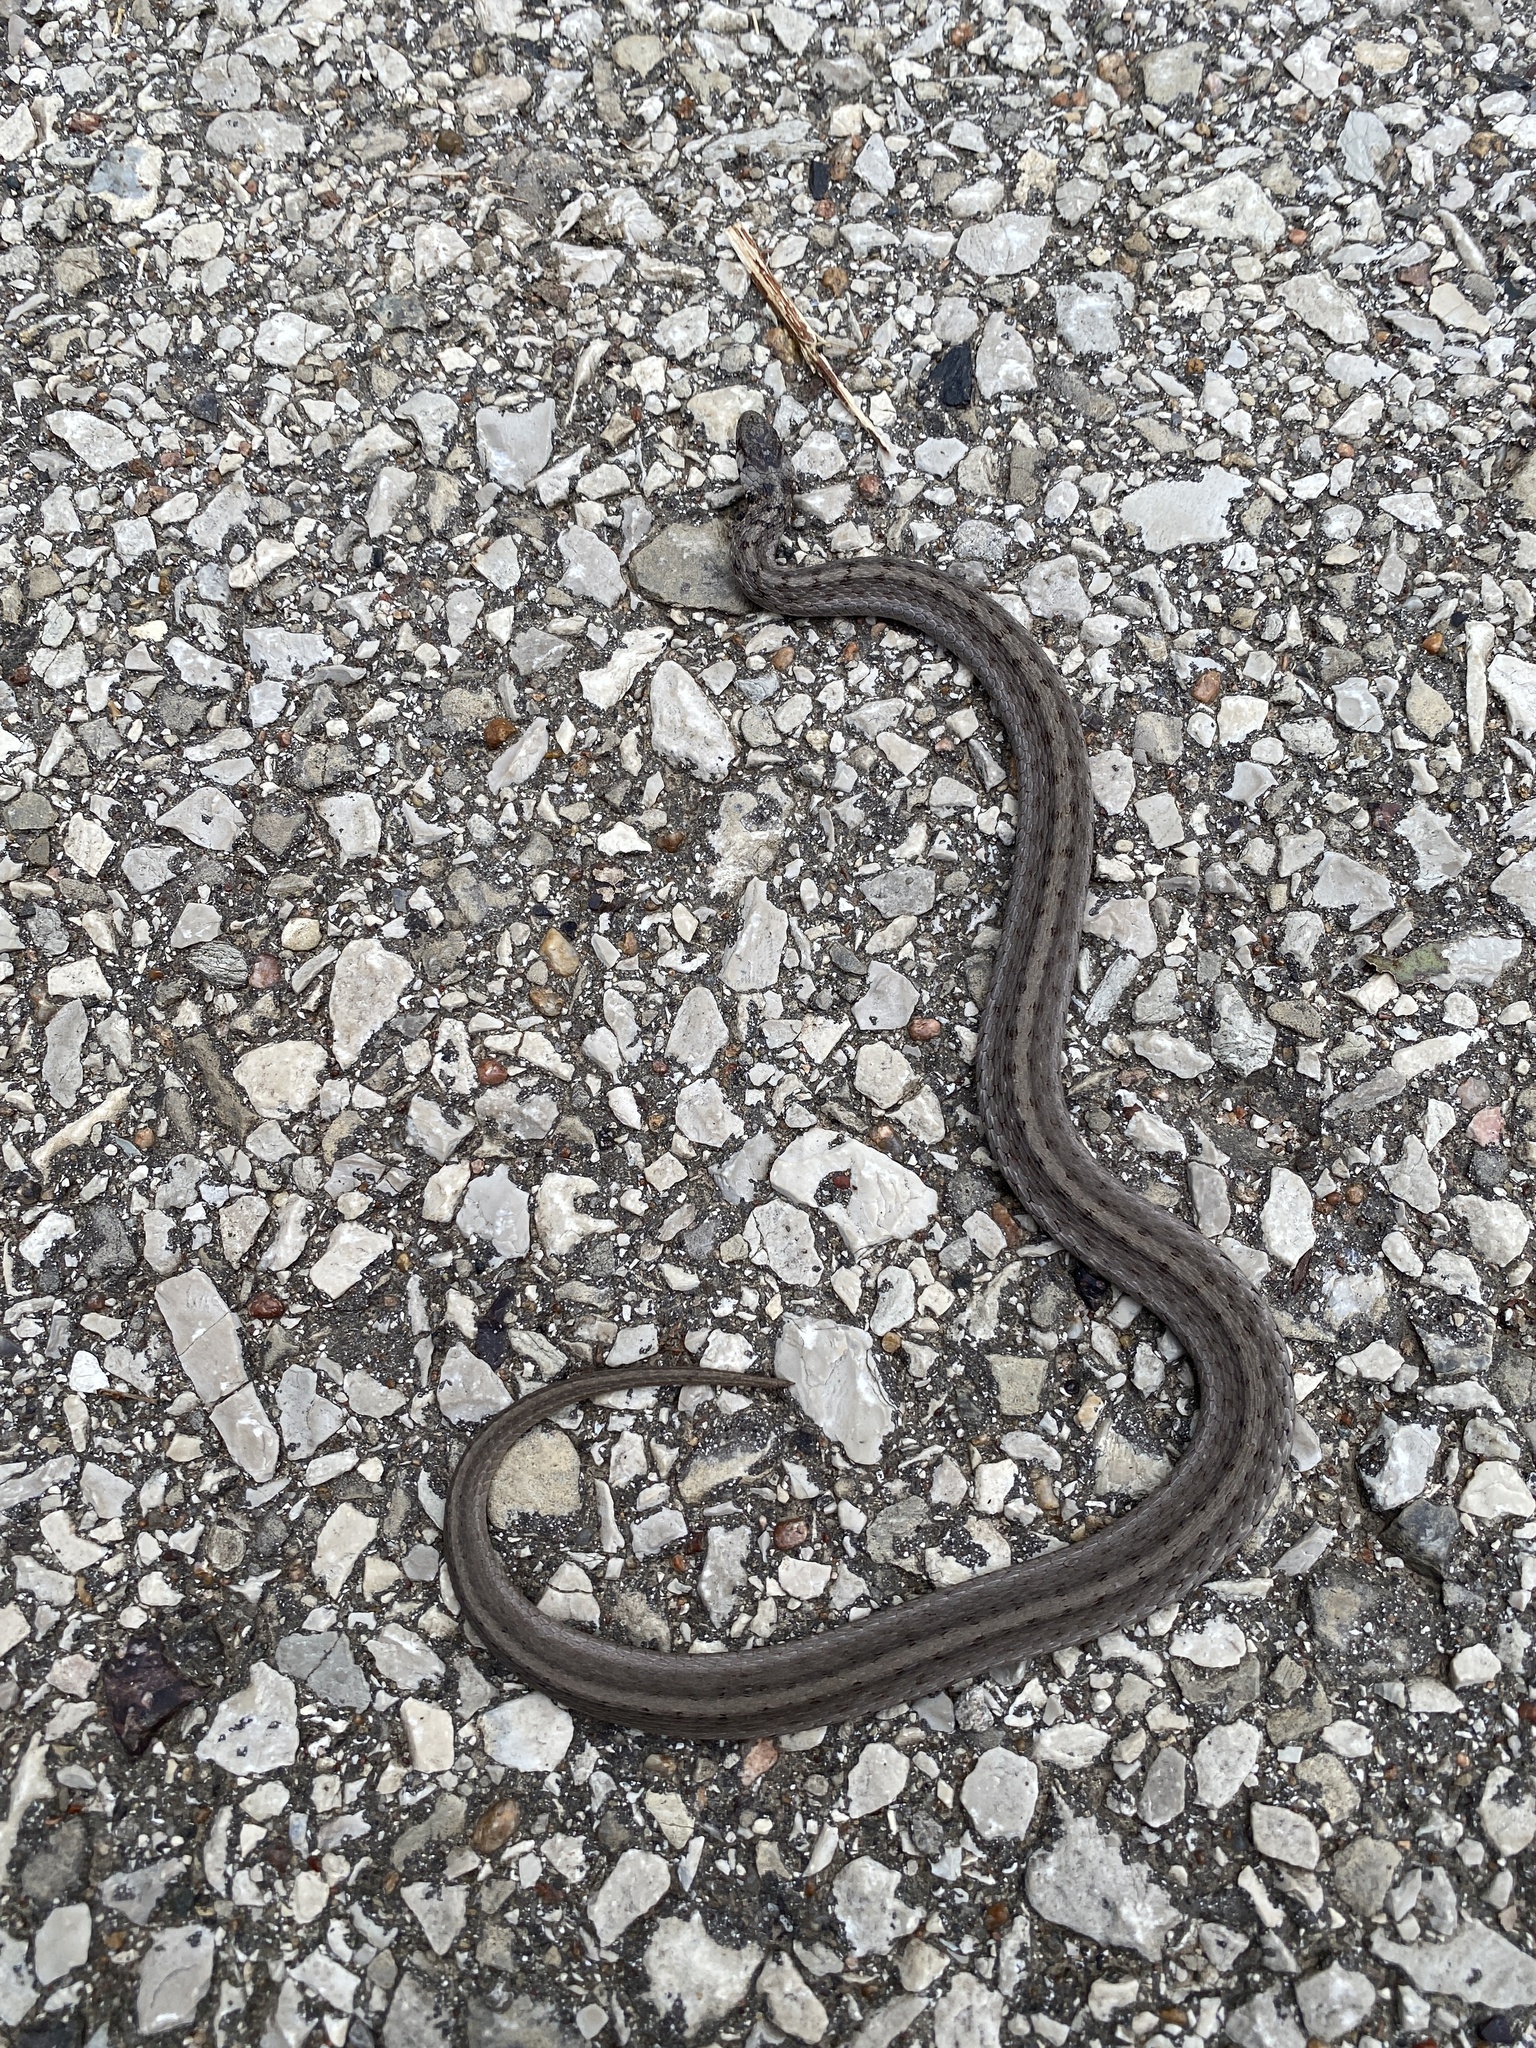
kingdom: Animalia
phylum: Chordata
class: Squamata
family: Colubridae
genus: Storeria
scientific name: Storeria dekayi
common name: (dekay’s) brown snake
